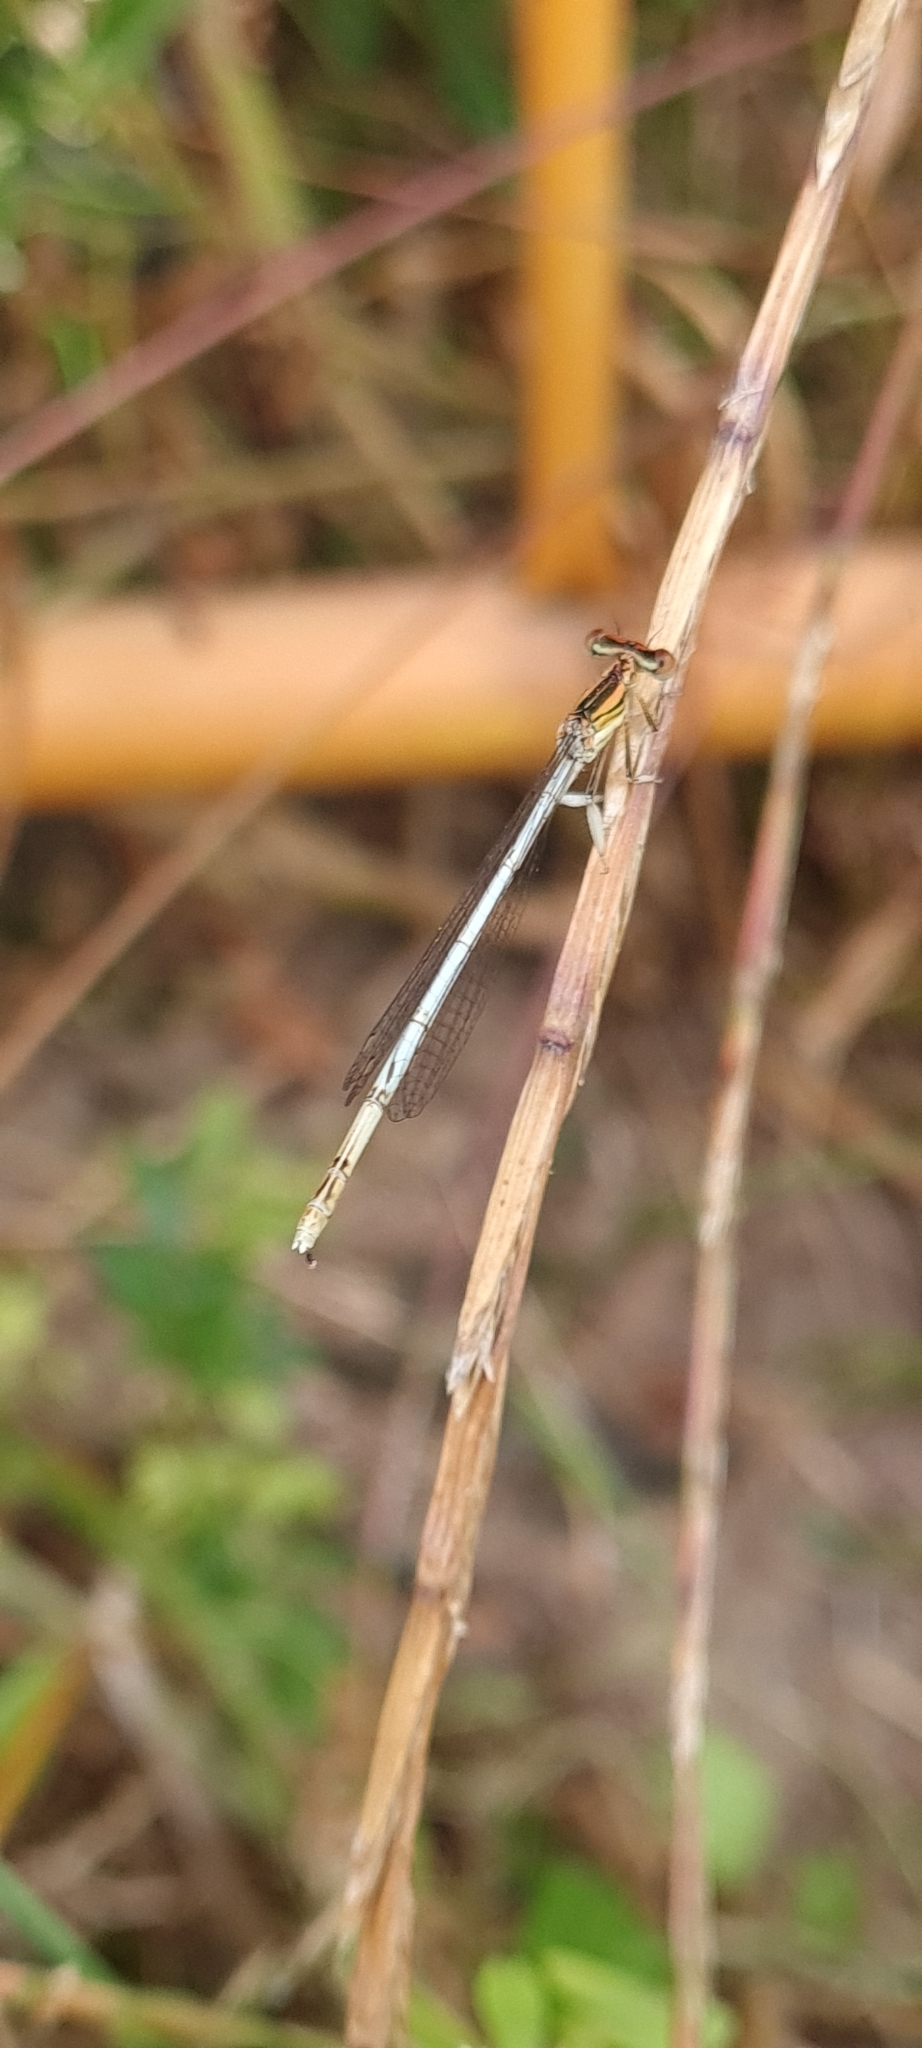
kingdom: Animalia
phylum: Arthropoda
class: Insecta
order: Odonata
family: Platycnemididae
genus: Platycnemis
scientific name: Platycnemis latipes
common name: White featherleg
